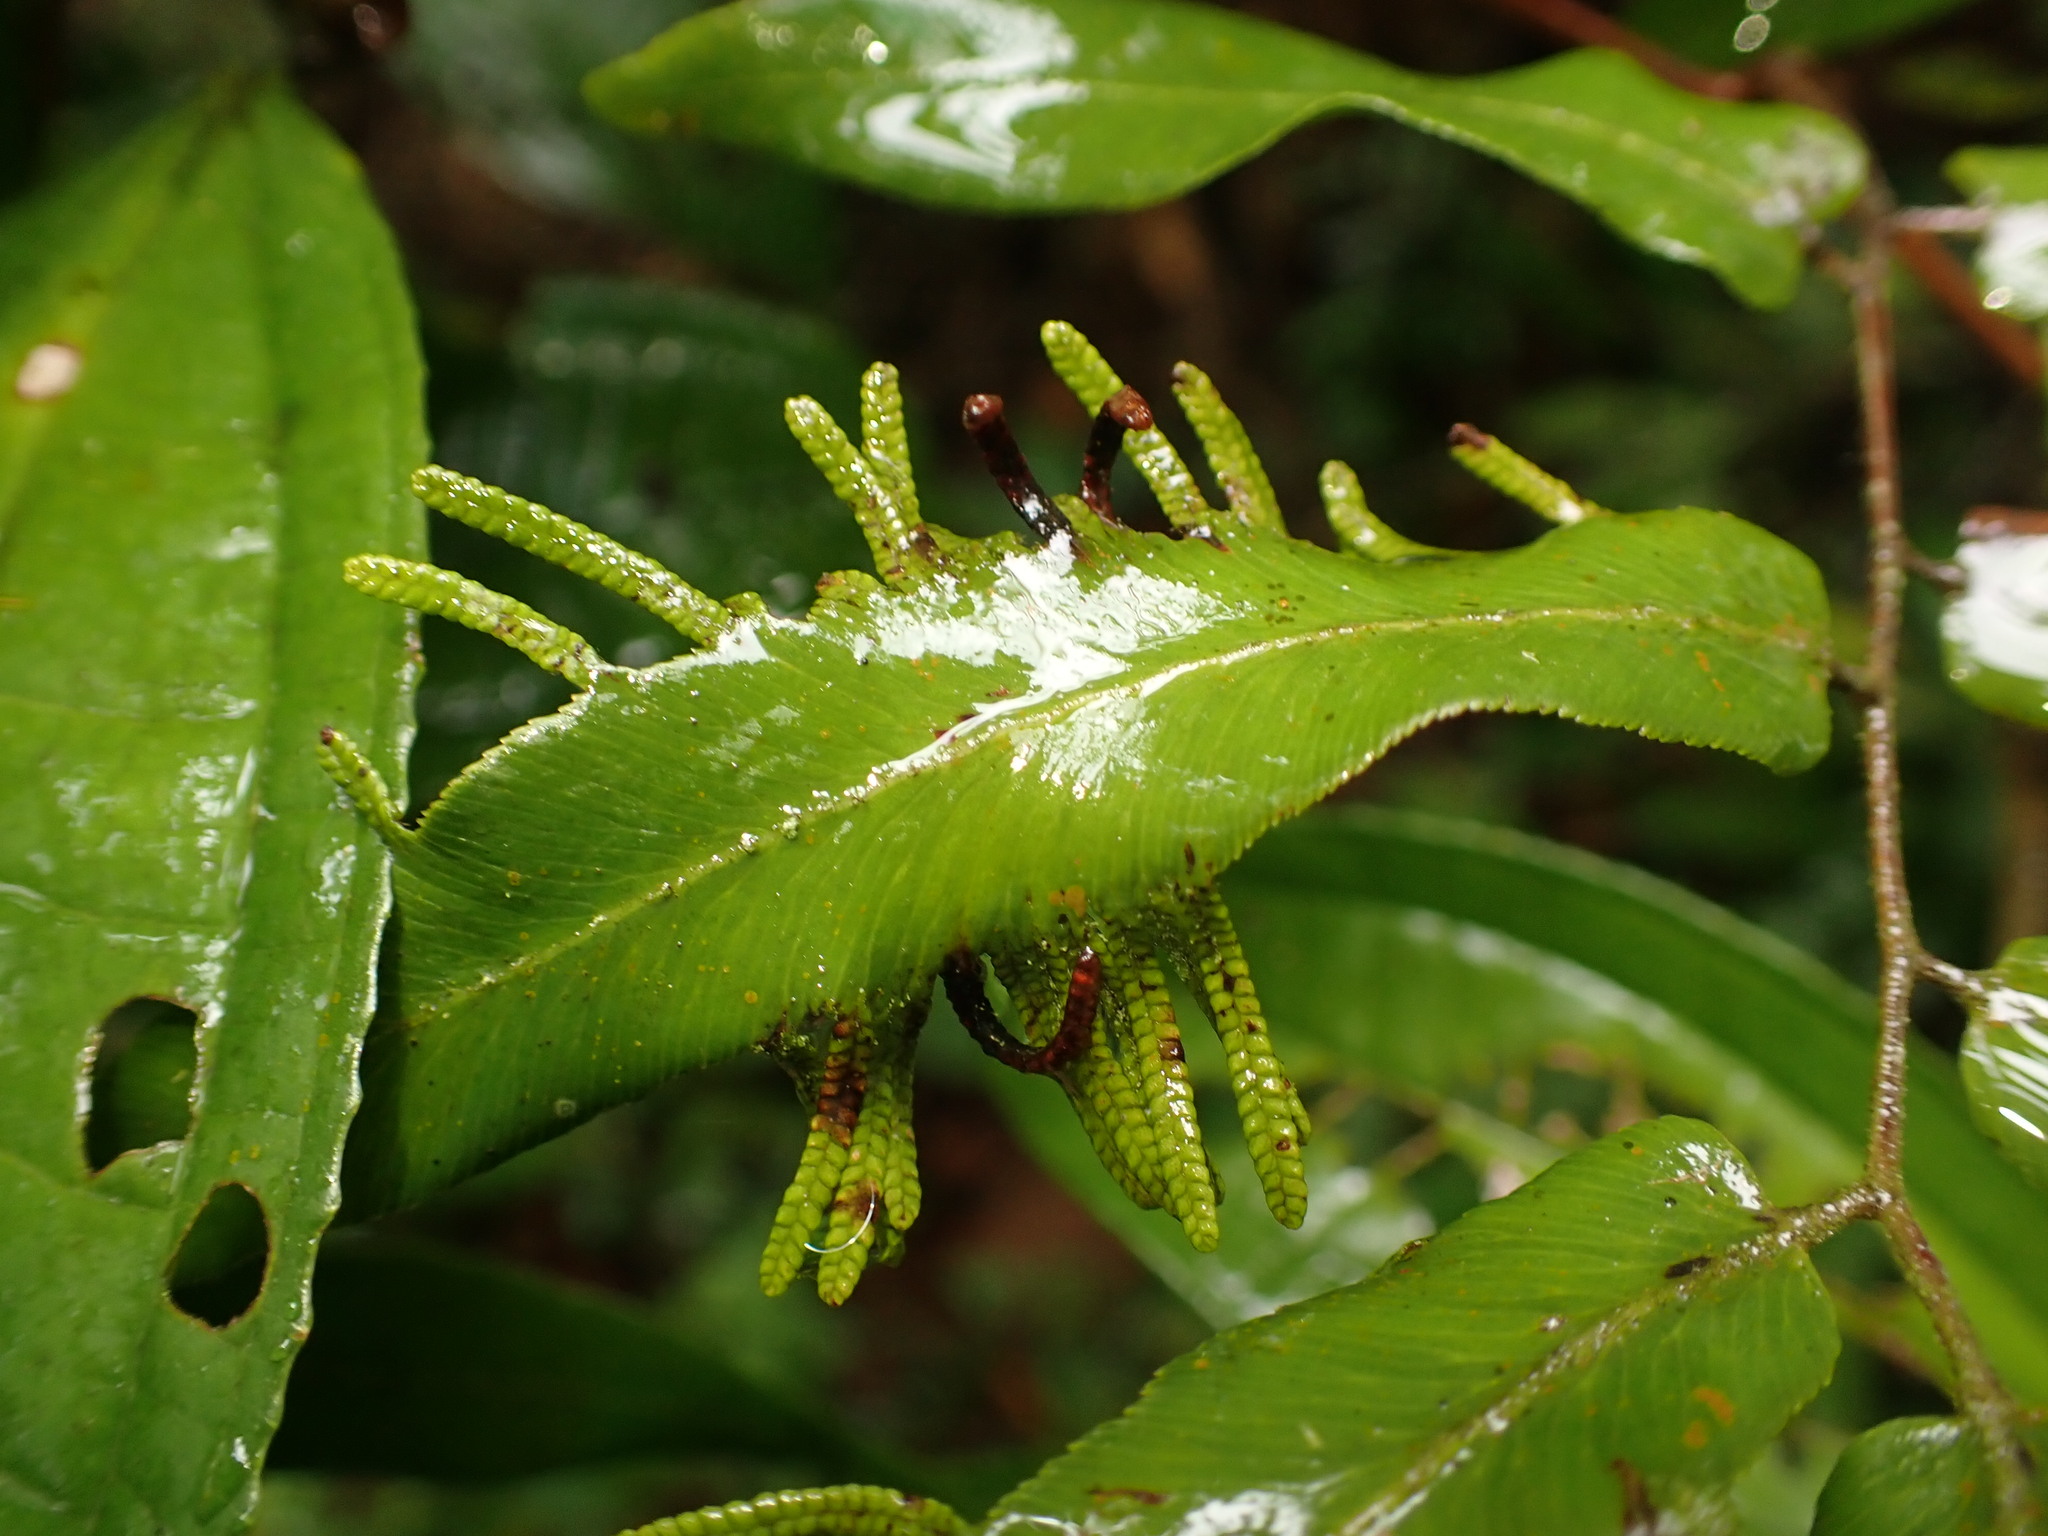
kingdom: Plantae
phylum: Tracheophyta
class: Polypodiopsida
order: Schizaeales
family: Lygodiaceae
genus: Lygodium
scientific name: Lygodium volubile
